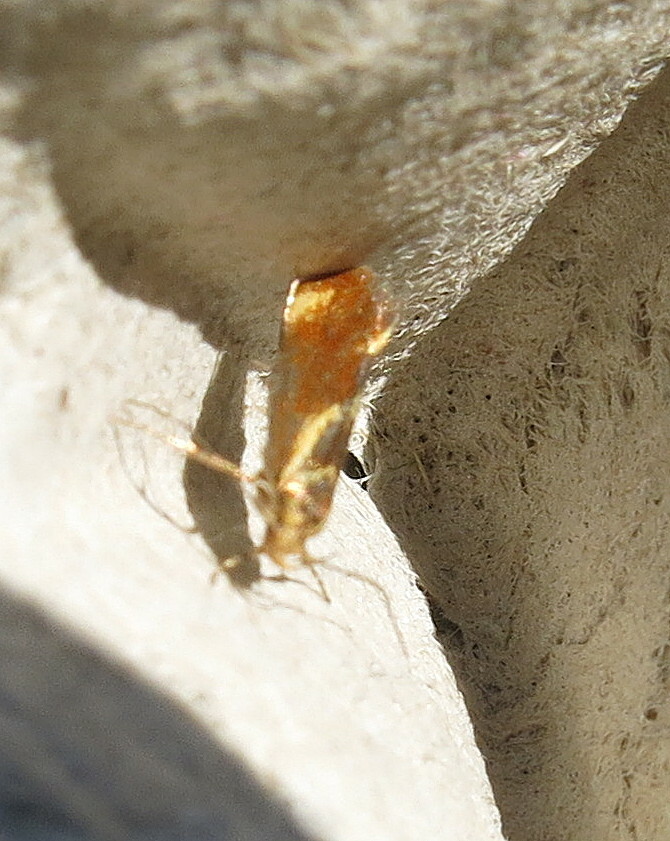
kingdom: Animalia
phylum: Arthropoda
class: Insecta
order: Lepidoptera
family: Oecophoridae
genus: Borkhausenia
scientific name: Borkhausenia italica
